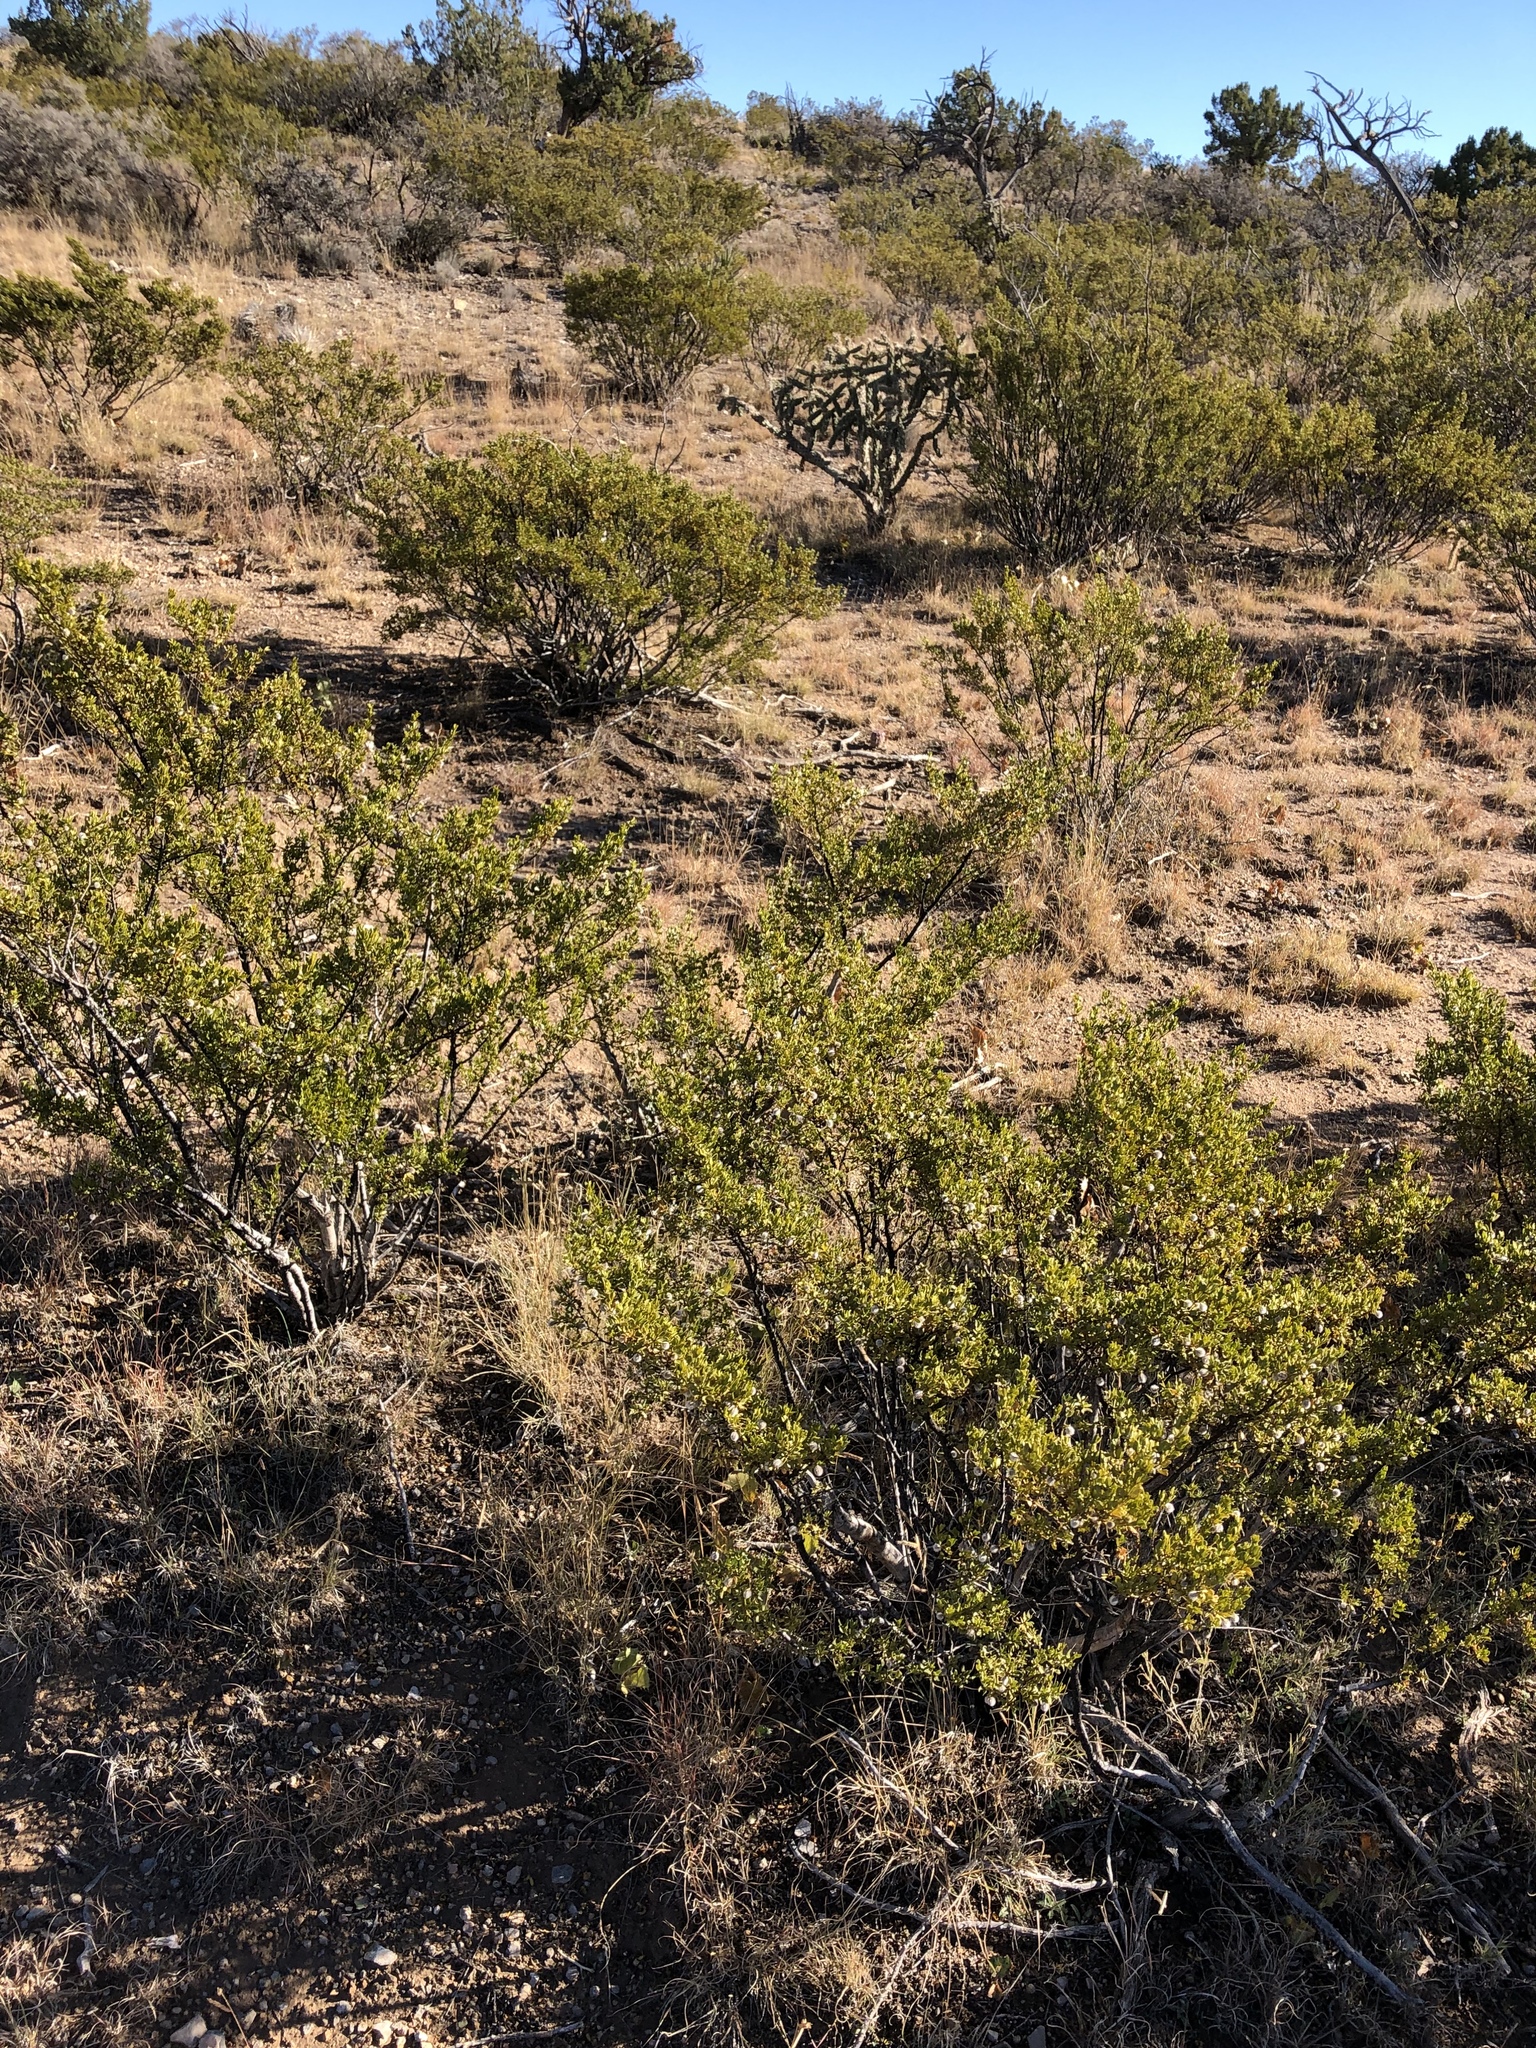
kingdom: Plantae
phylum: Tracheophyta
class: Magnoliopsida
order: Zygophyllales
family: Zygophyllaceae
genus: Larrea
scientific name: Larrea tridentata
